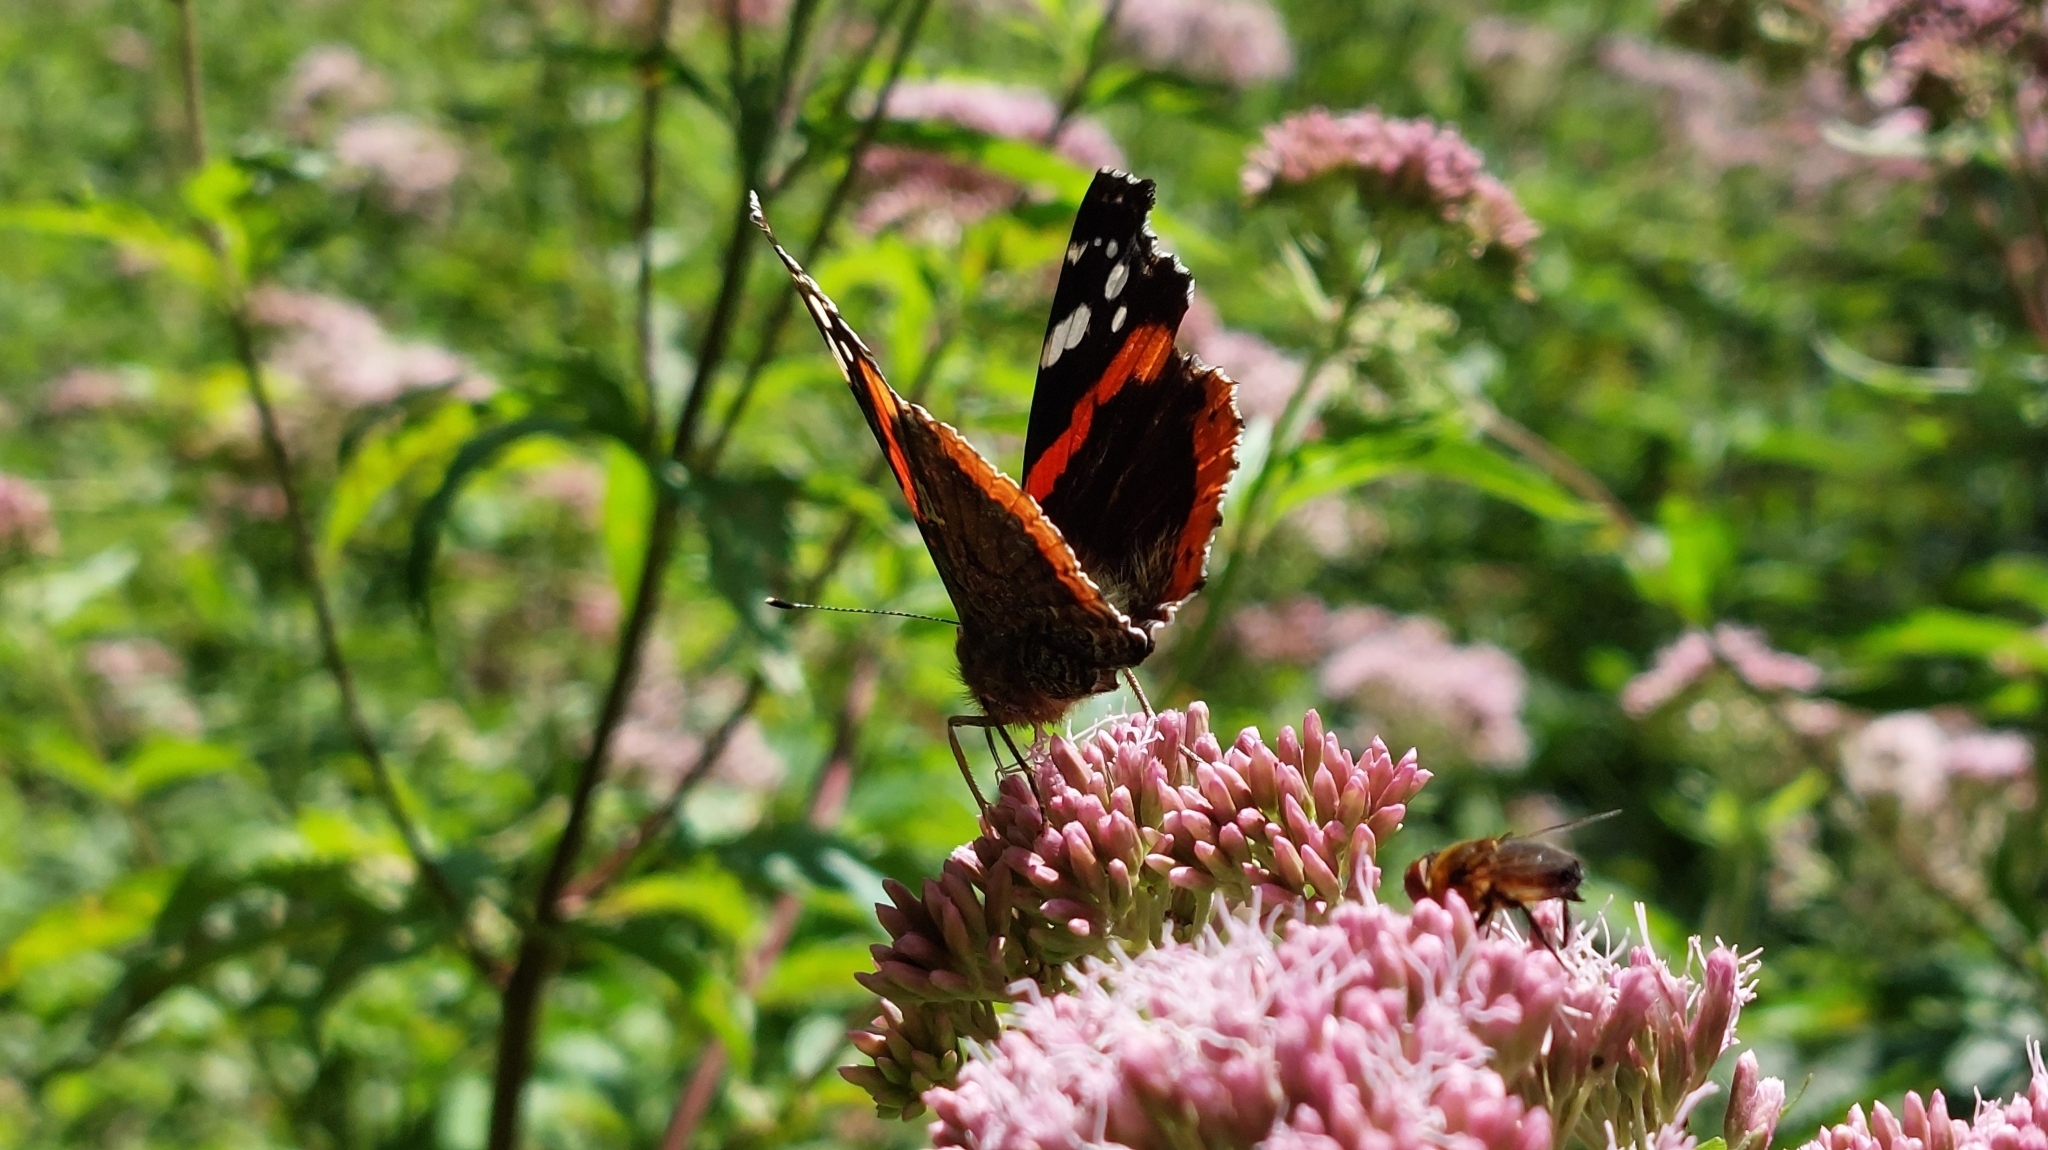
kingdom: Animalia
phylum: Arthropoda
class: Insecta
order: Lepidoptera
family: Nymphalidae
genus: Vanessa
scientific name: Vanessa atalanta
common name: Red admiral
